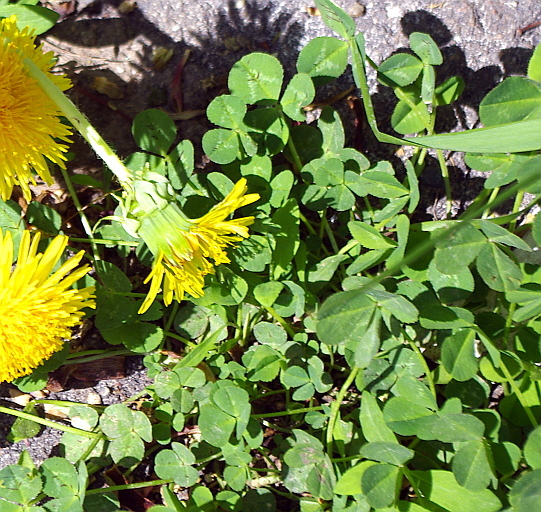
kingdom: Plantae
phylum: Tracheophyta
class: Magnoliopsida
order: Fabales
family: Fabaceae
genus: Trifolium
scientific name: Trifolium repens
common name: White clover
